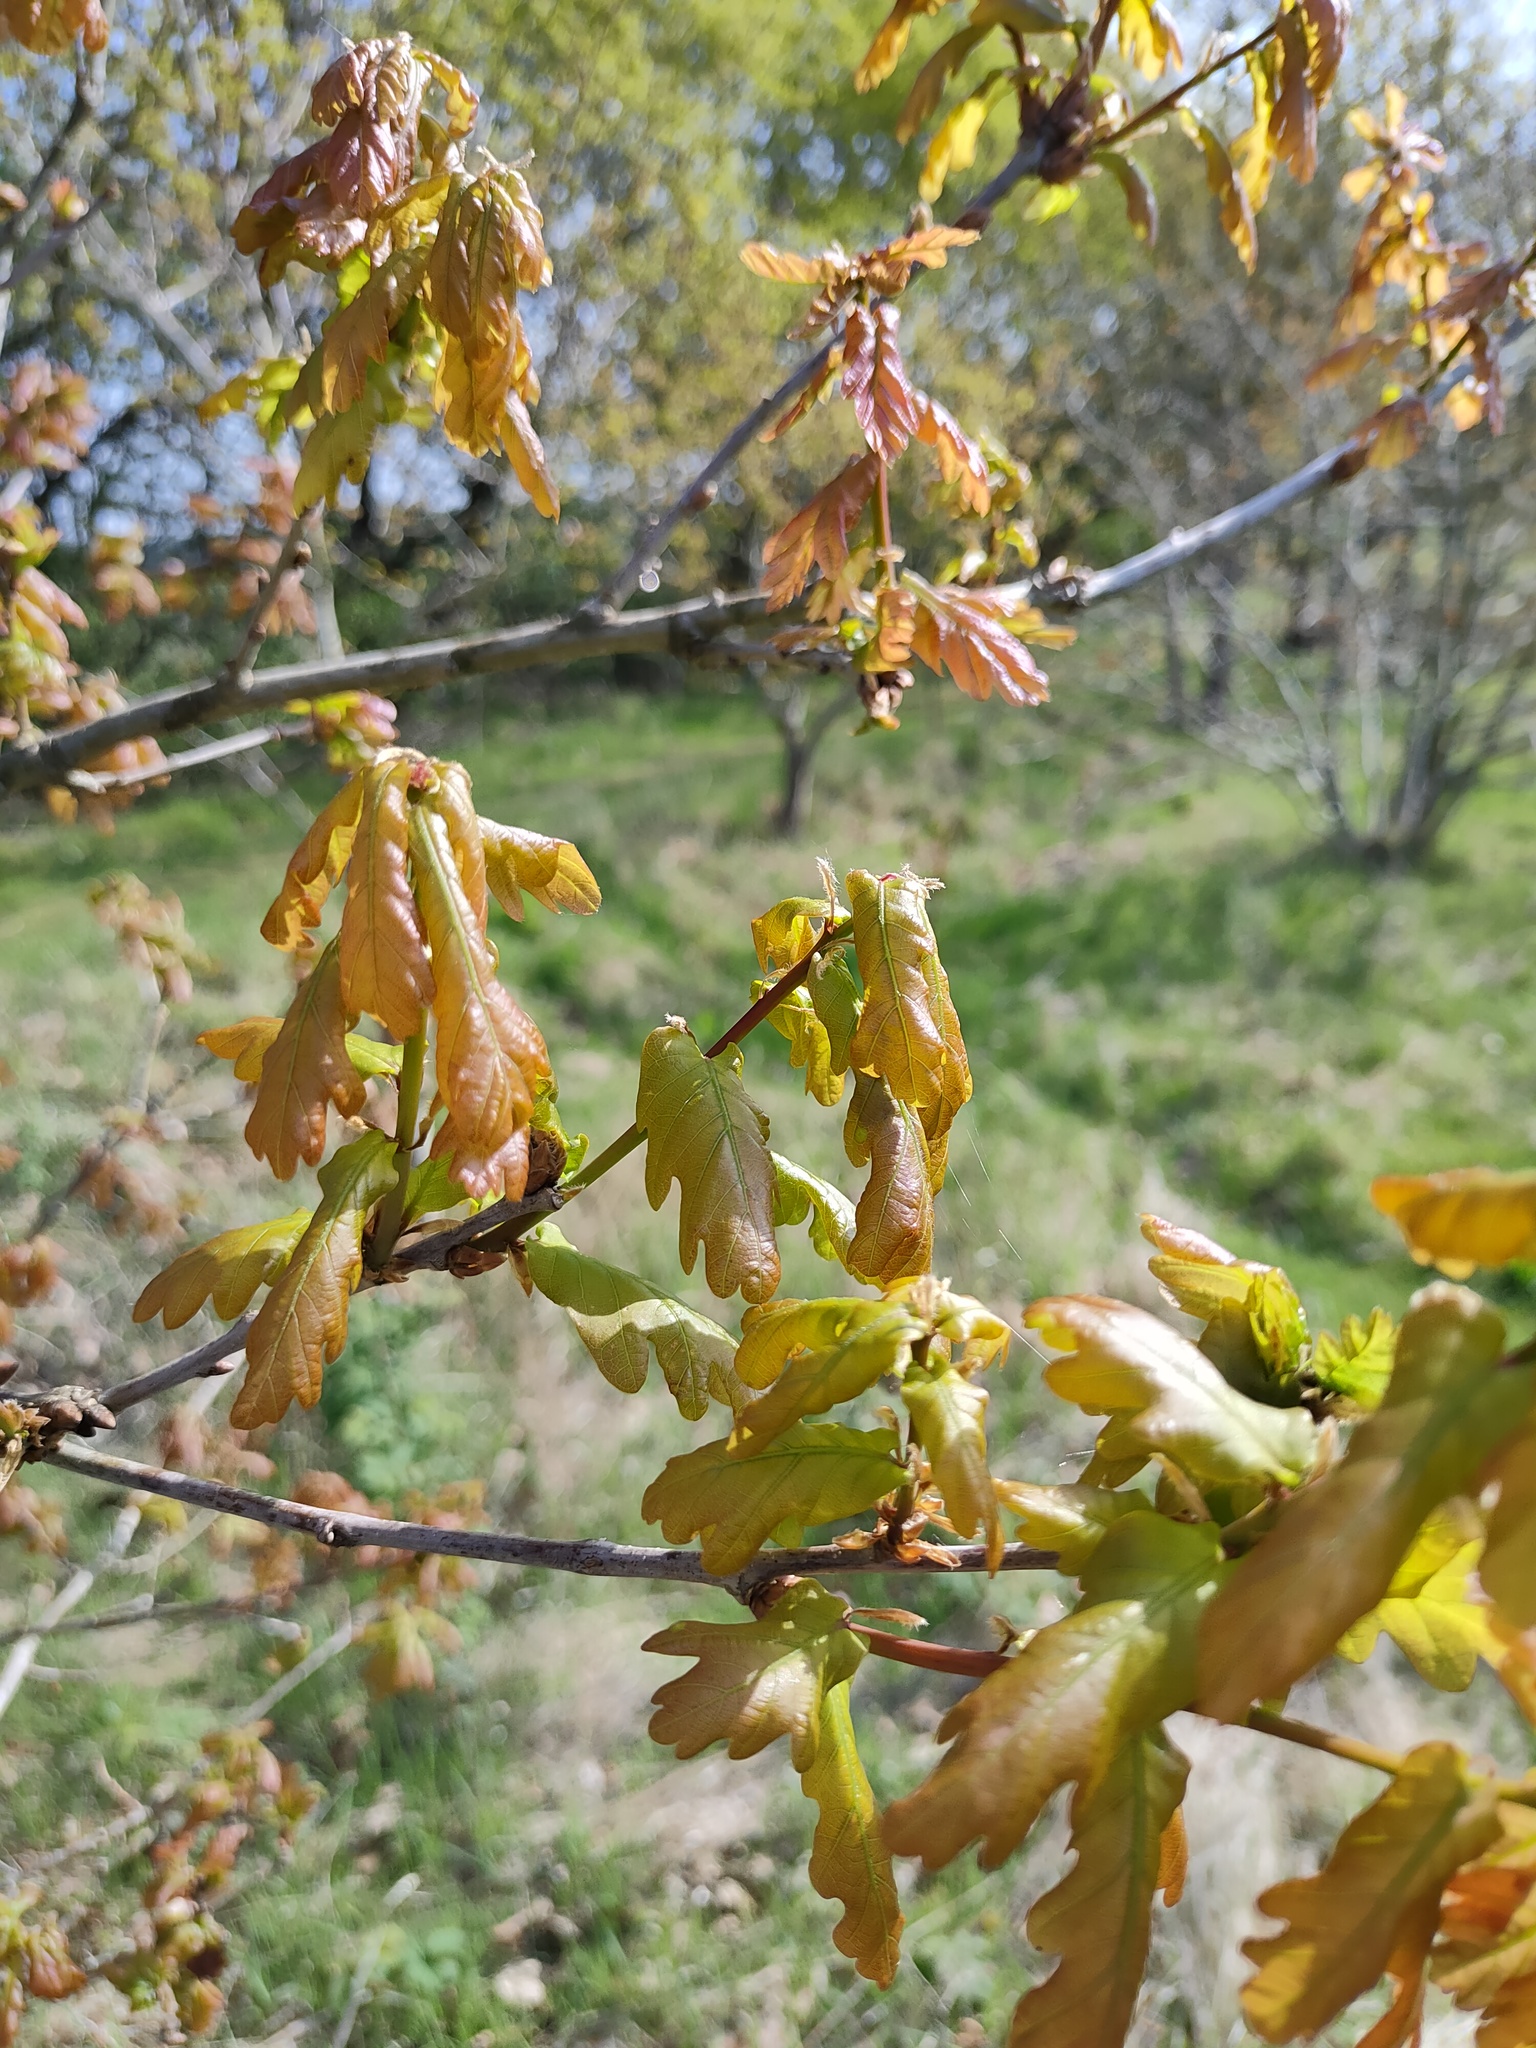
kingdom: Plantae
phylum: Tracheophyta
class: Magnoliopsida
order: Fagales
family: Fagaceae
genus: Quercus
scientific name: Quercus robur
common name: Pedunculate oak
